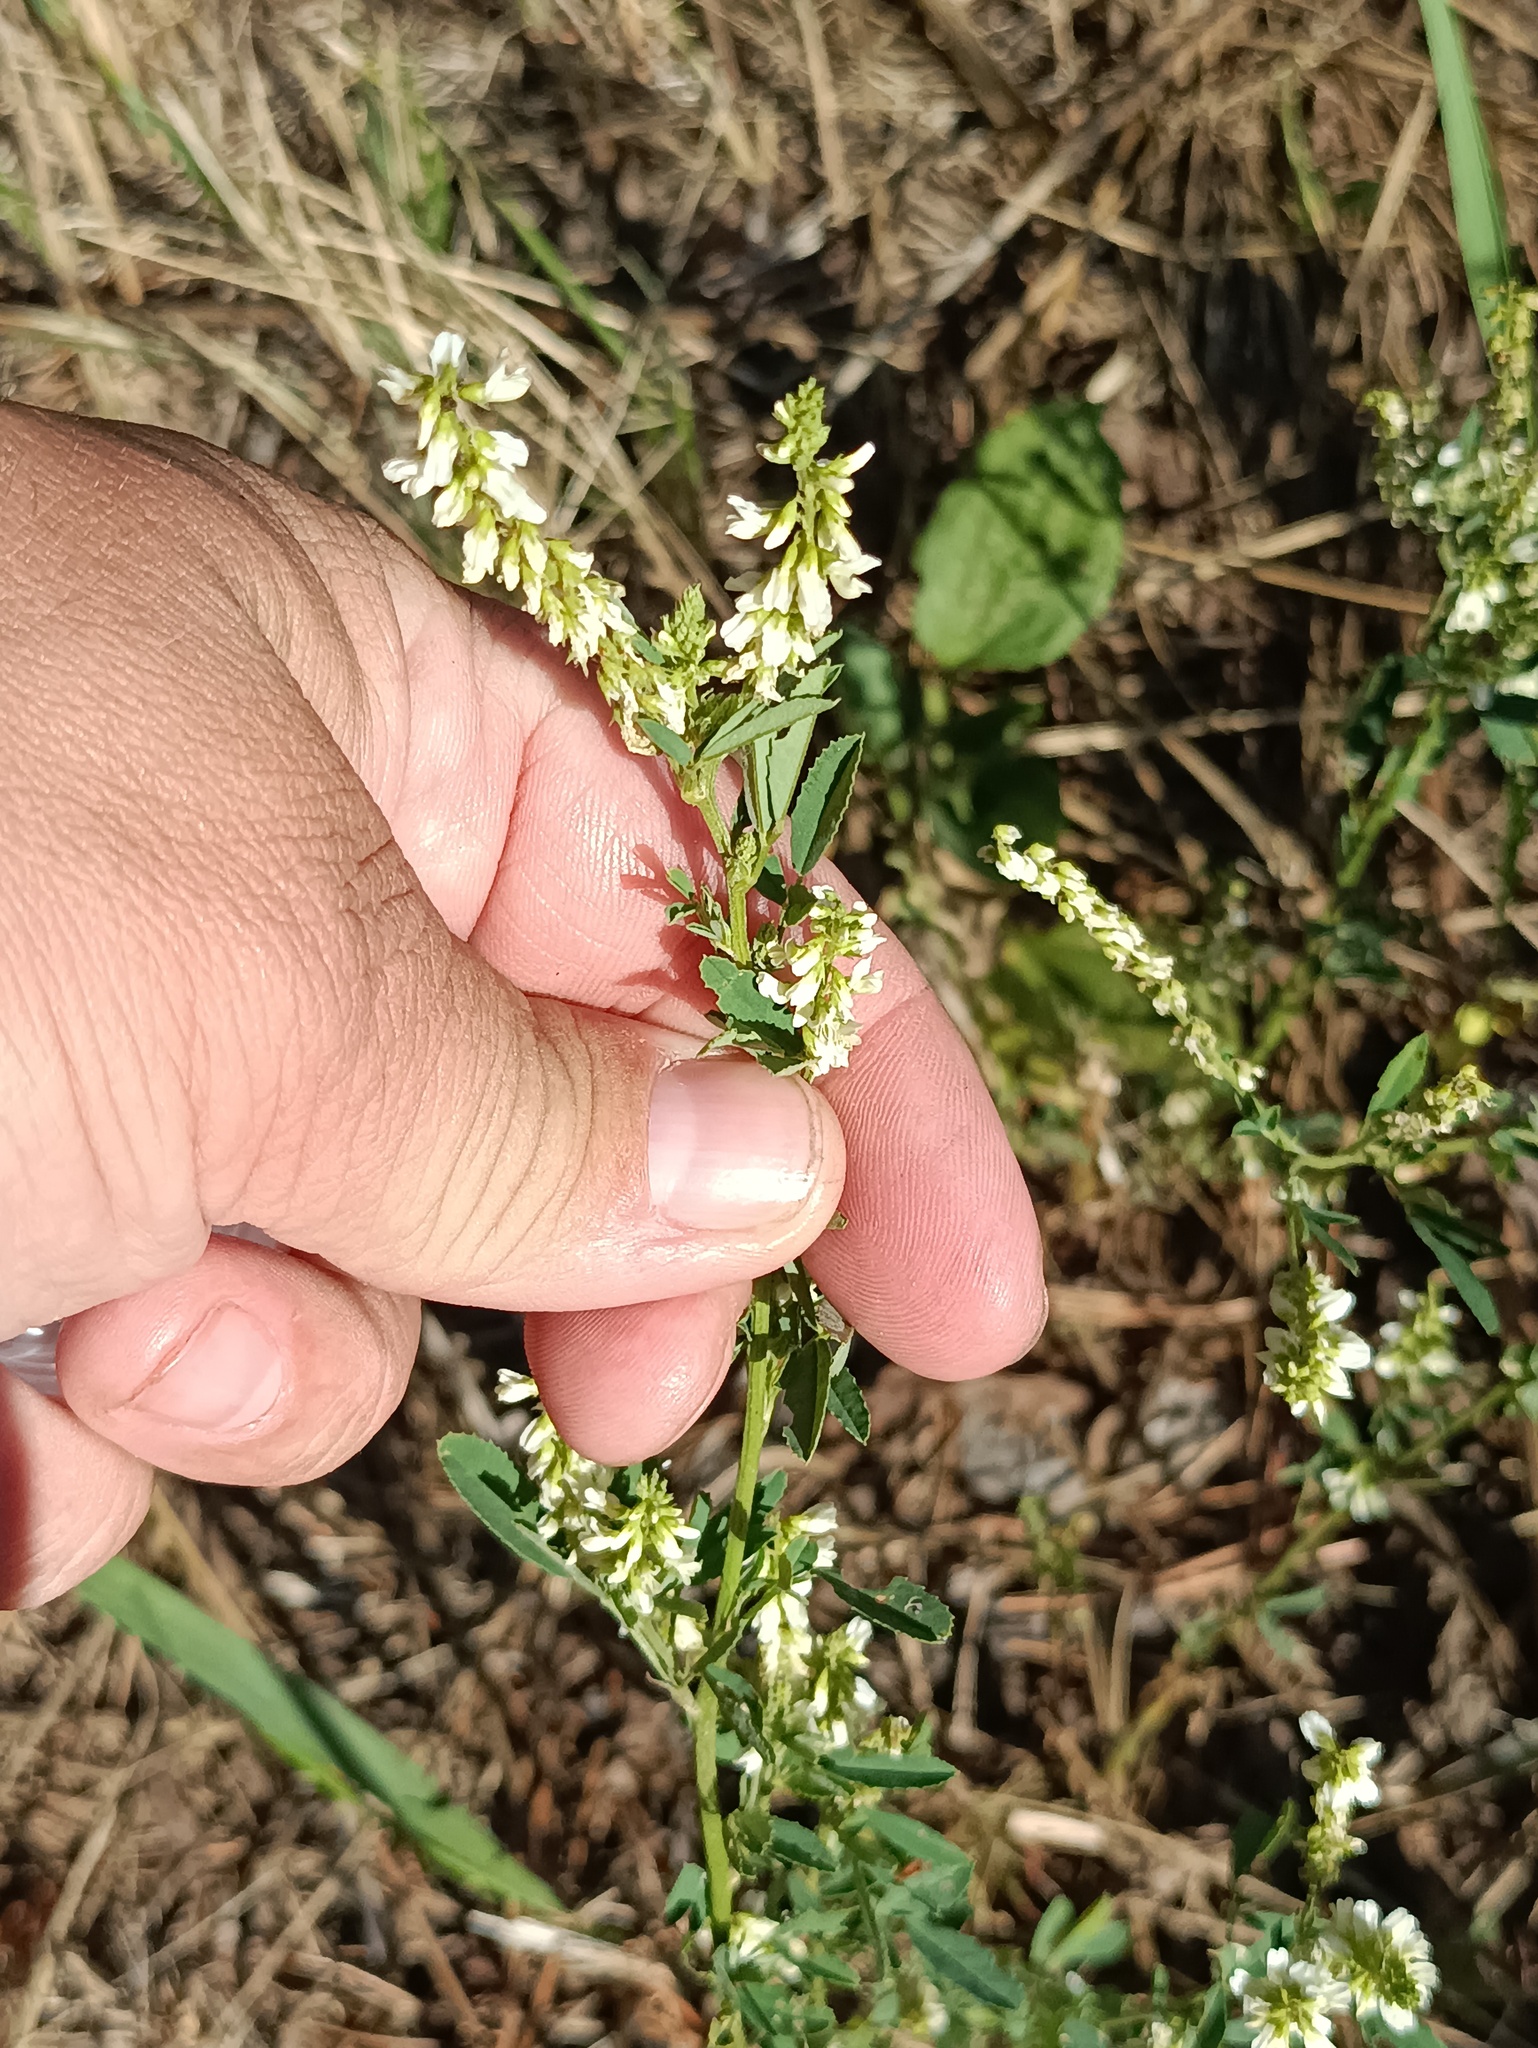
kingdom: Plantae
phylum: Tracheophyta
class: Magnoliopsida
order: Fabales
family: Fabaceae
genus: Melilotus
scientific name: Melilotus albus
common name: White melilot
